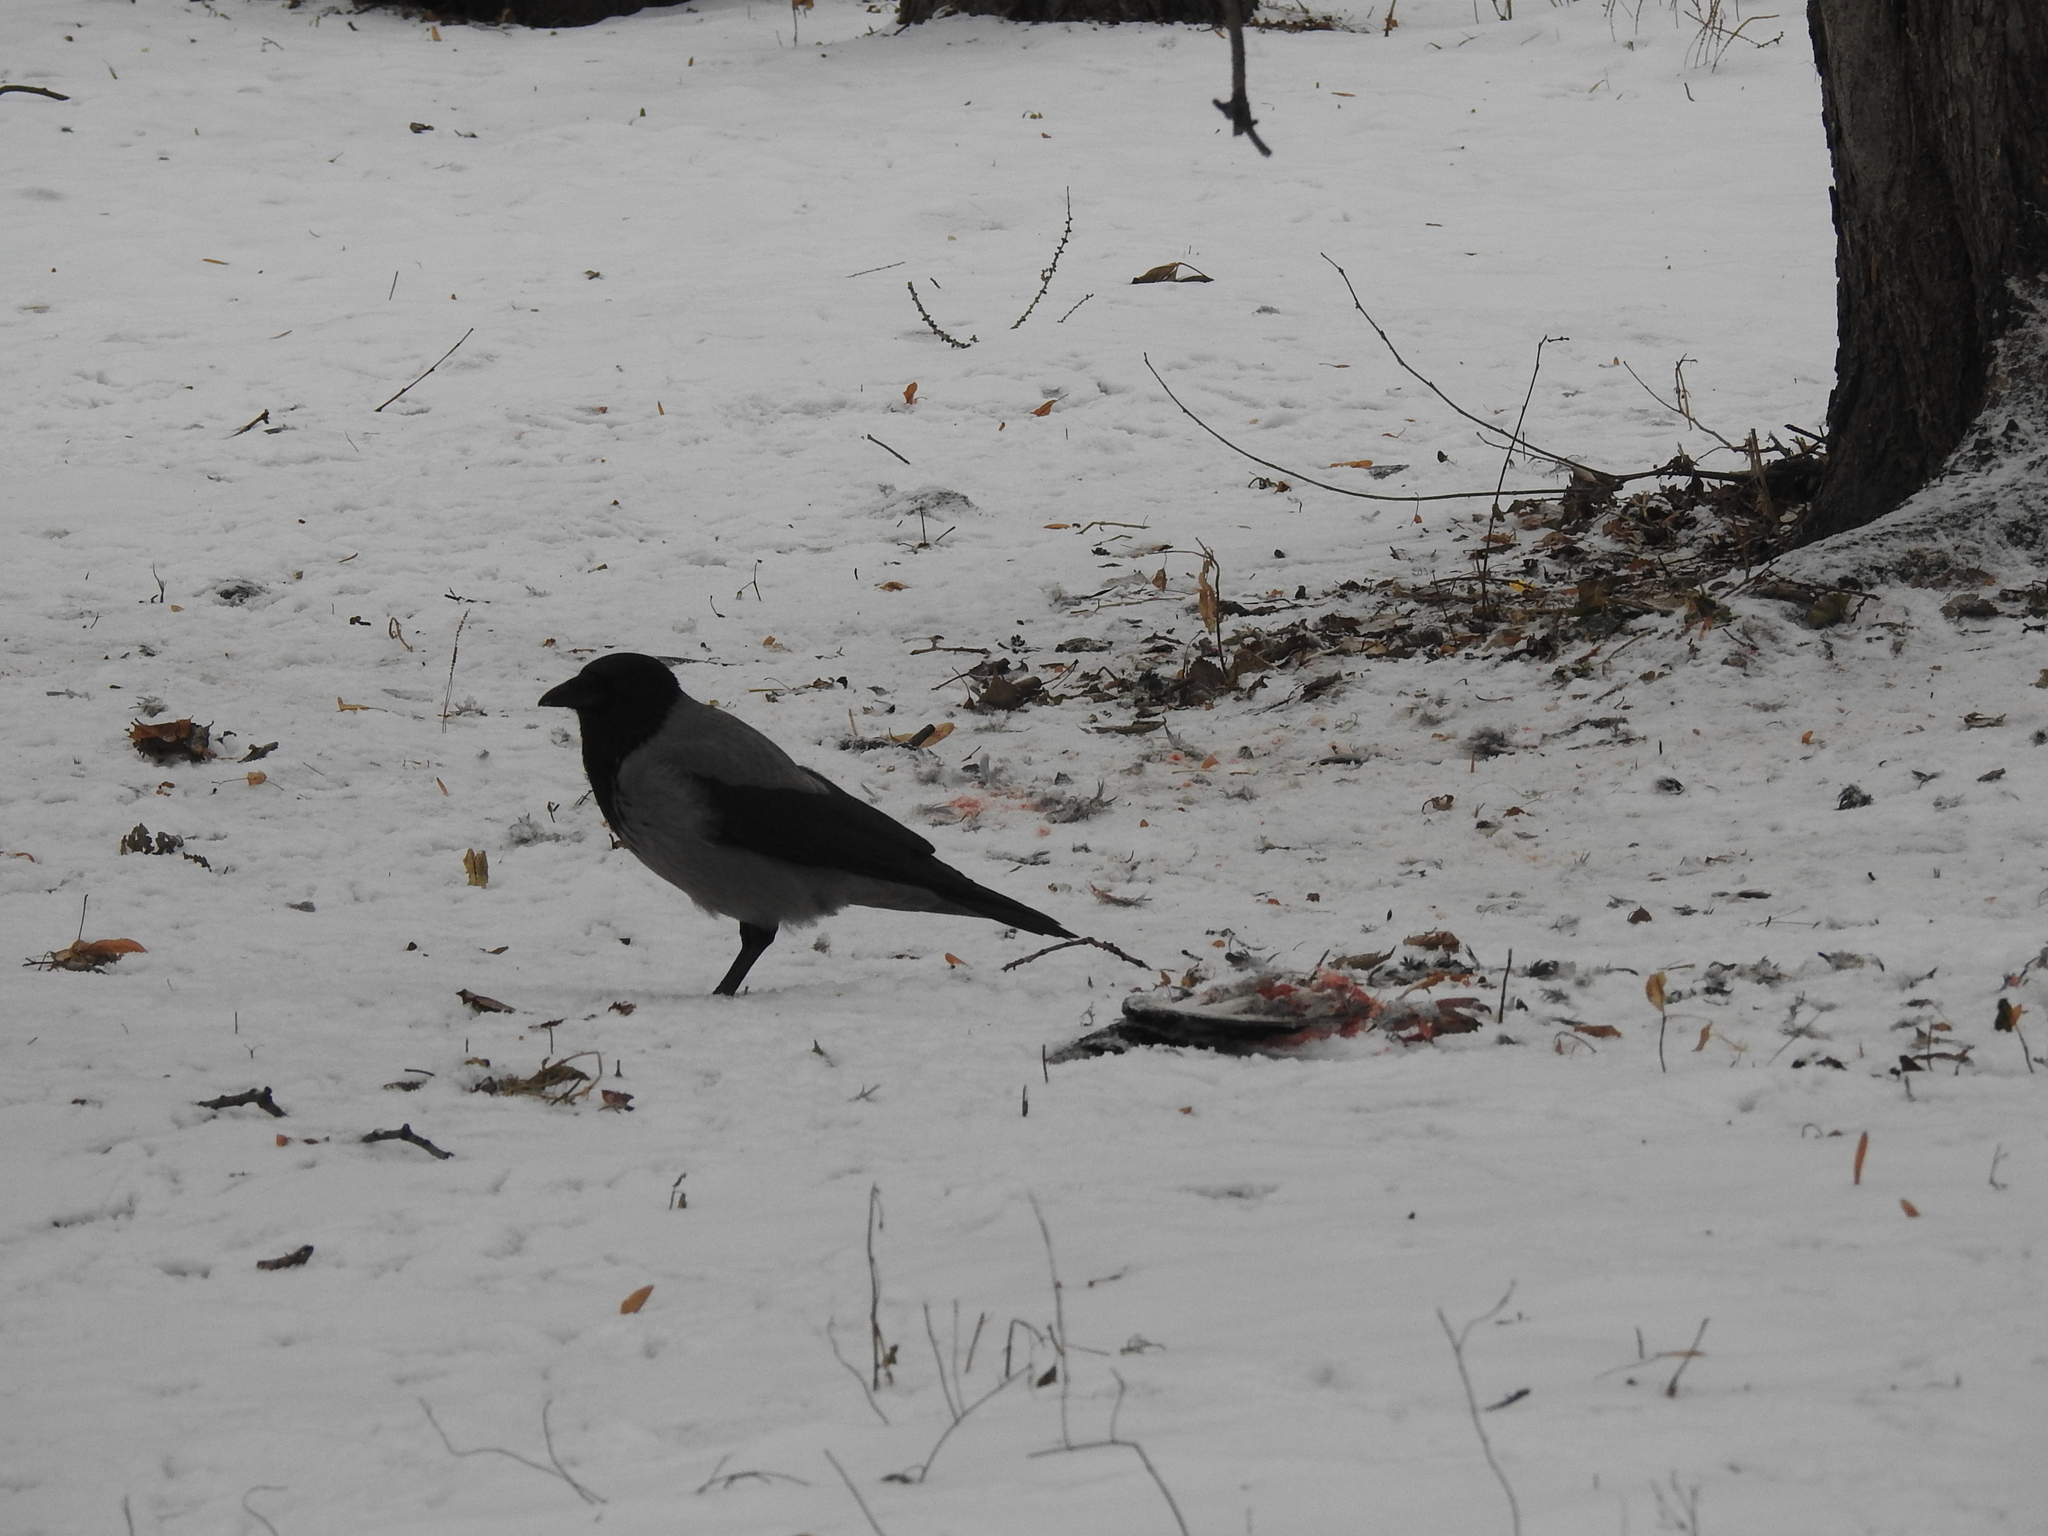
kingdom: Animalia
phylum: Chordata
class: Aves
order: Passeriformes
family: Corvidae
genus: Corvus
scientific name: Corvus cornix
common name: Hooded crow
